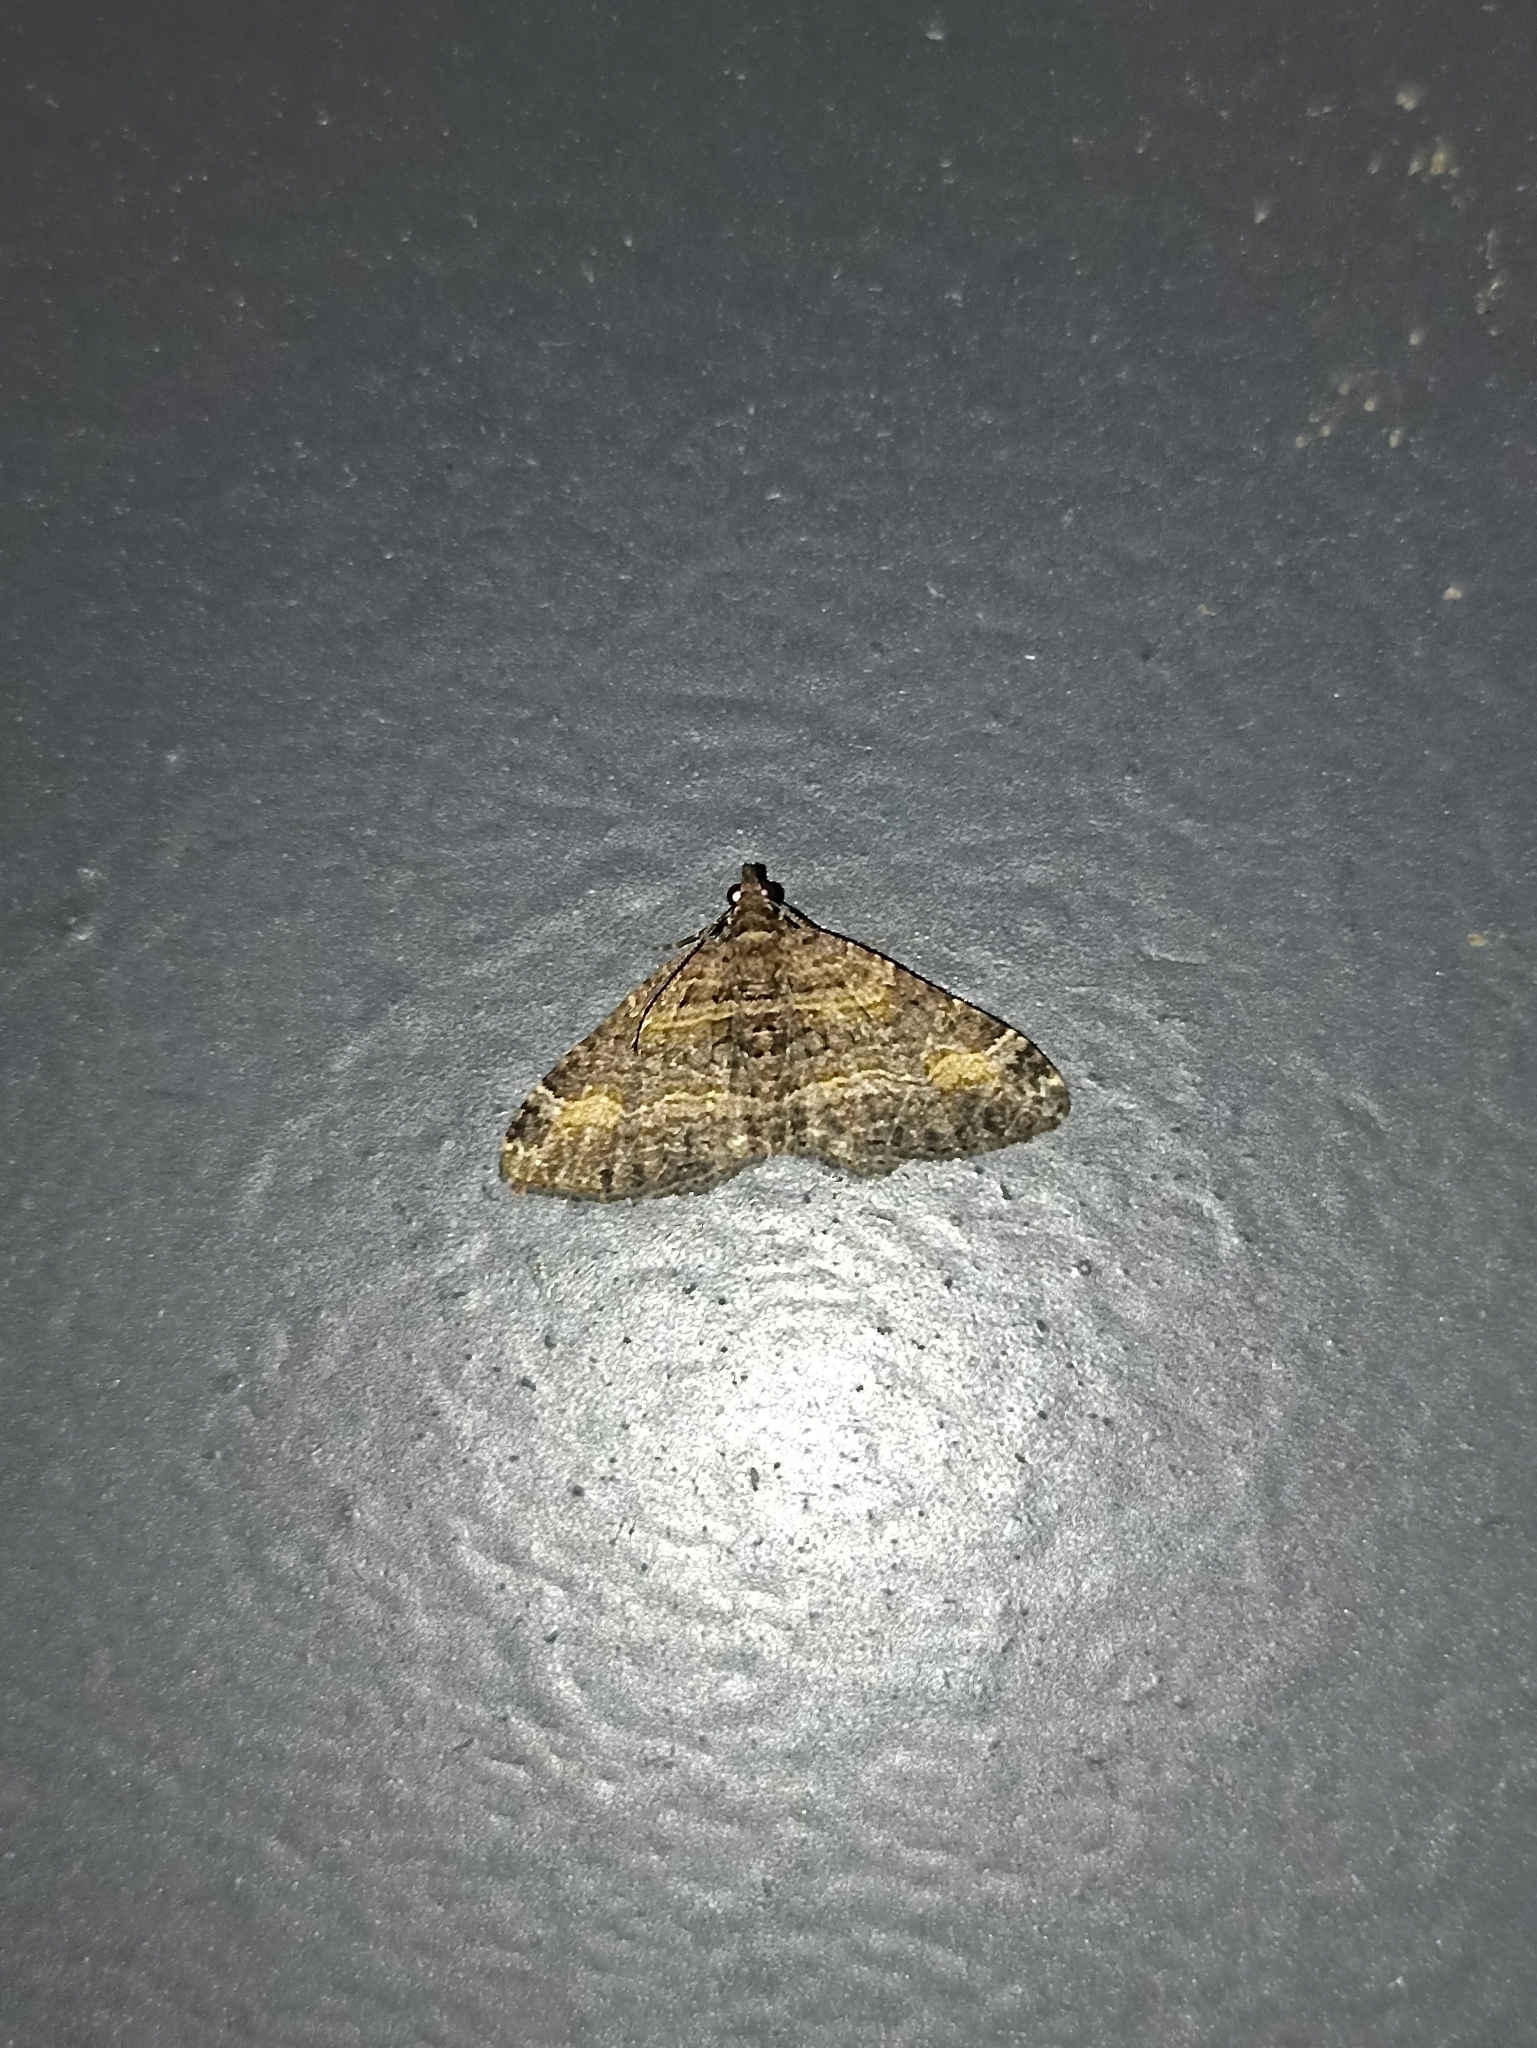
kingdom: Animalia
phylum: Arthropoda
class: Insecta
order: Lepidoptera
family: Geometridae
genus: Epyaxa
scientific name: Epyaxa lucidata
